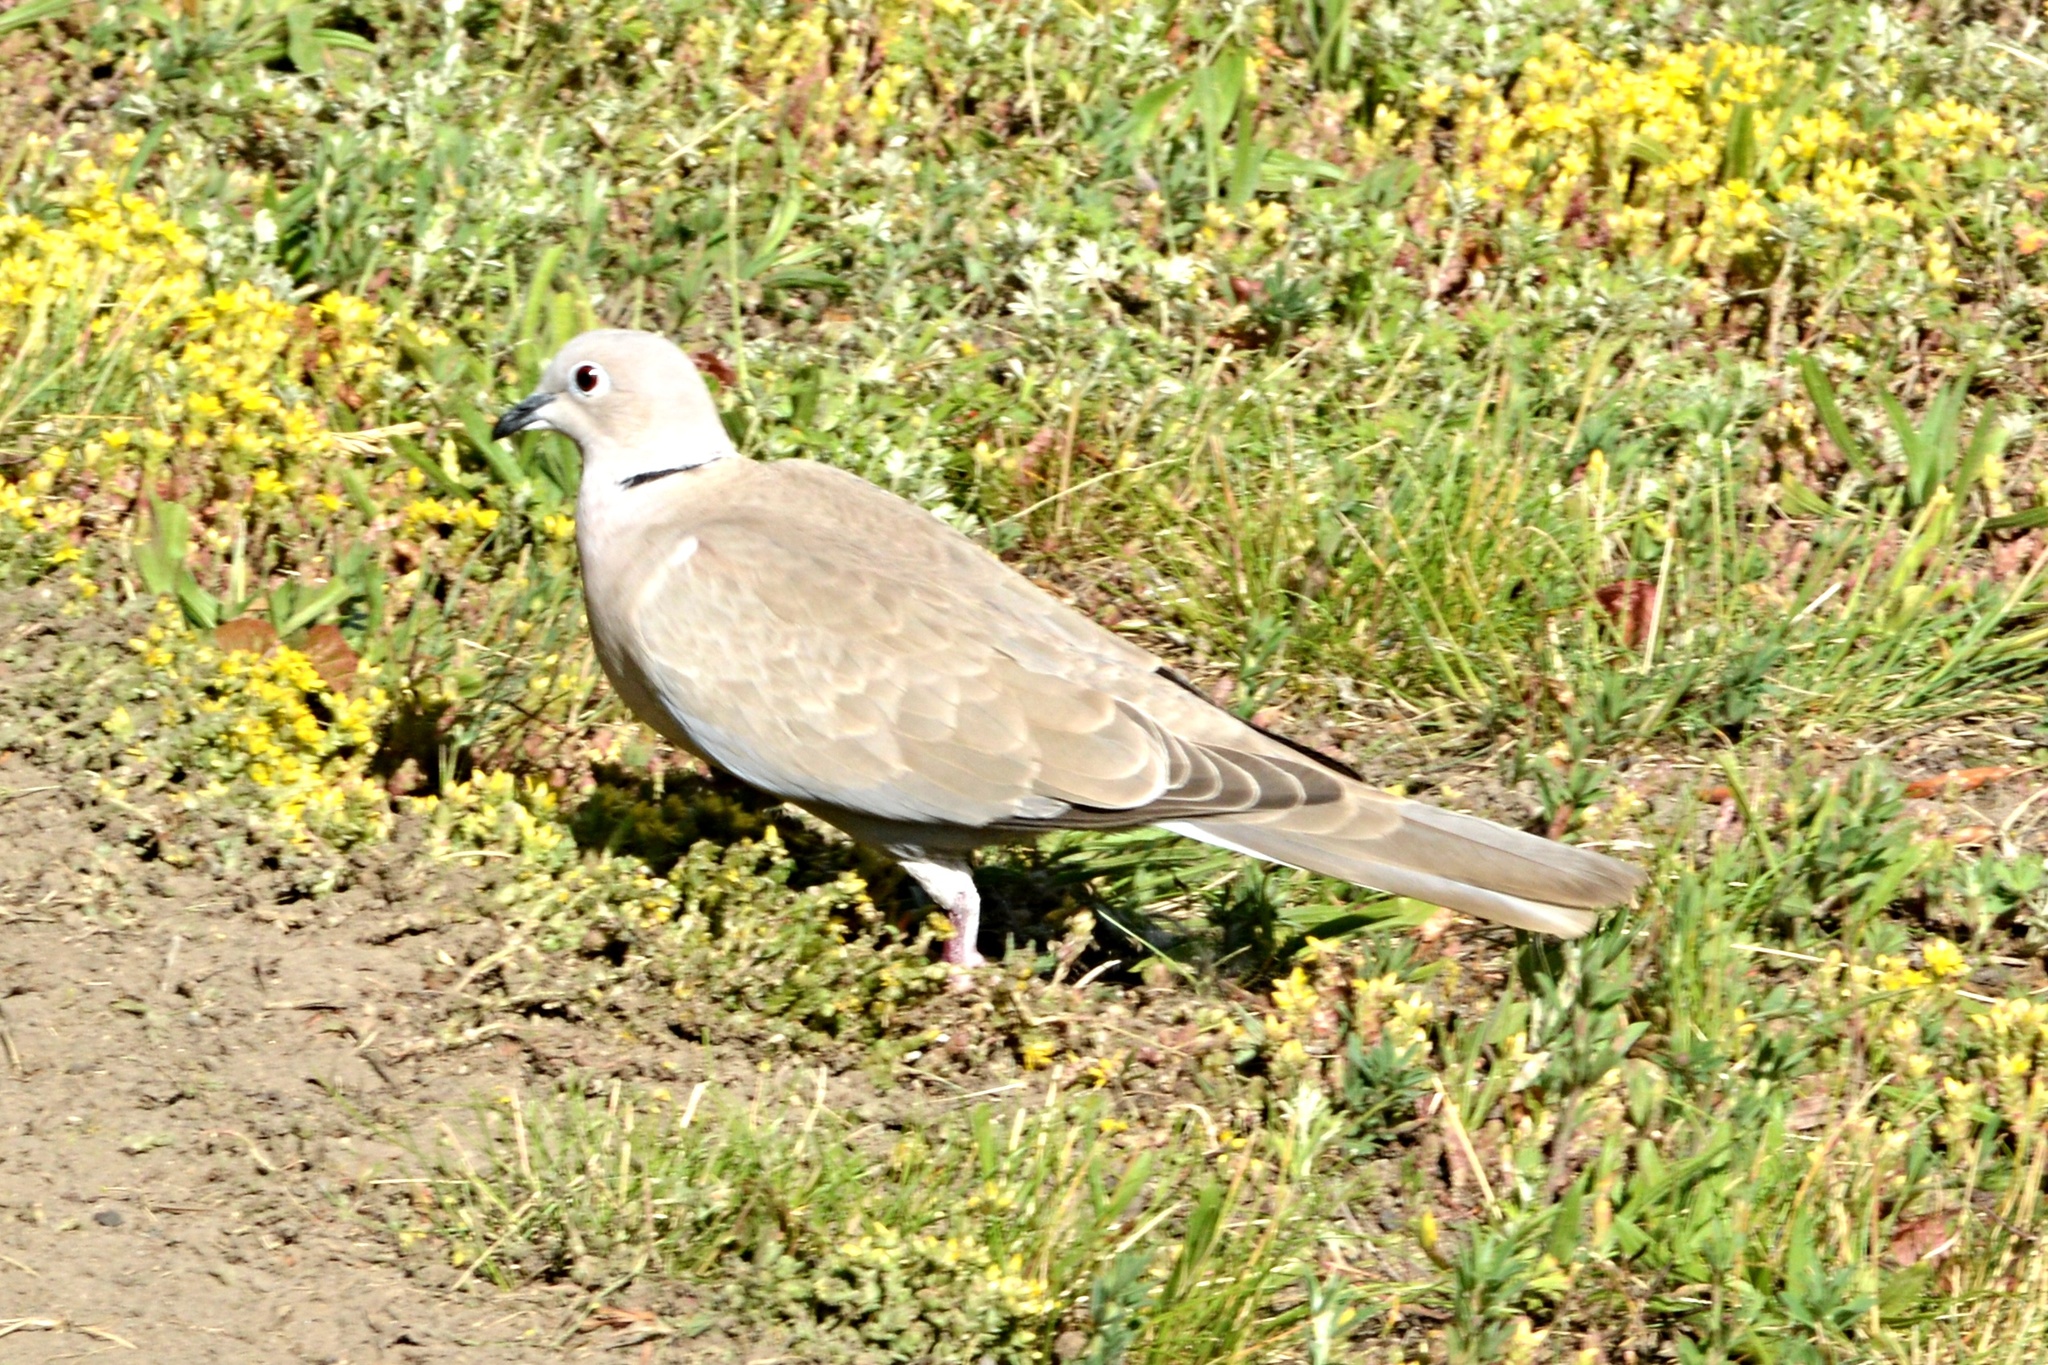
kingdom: Animalia
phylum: Chordata
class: Aves
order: Columbiformes
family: Columbidae
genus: Streptopelia
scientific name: Streptopelia decaocto
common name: Eurasian collared dove
